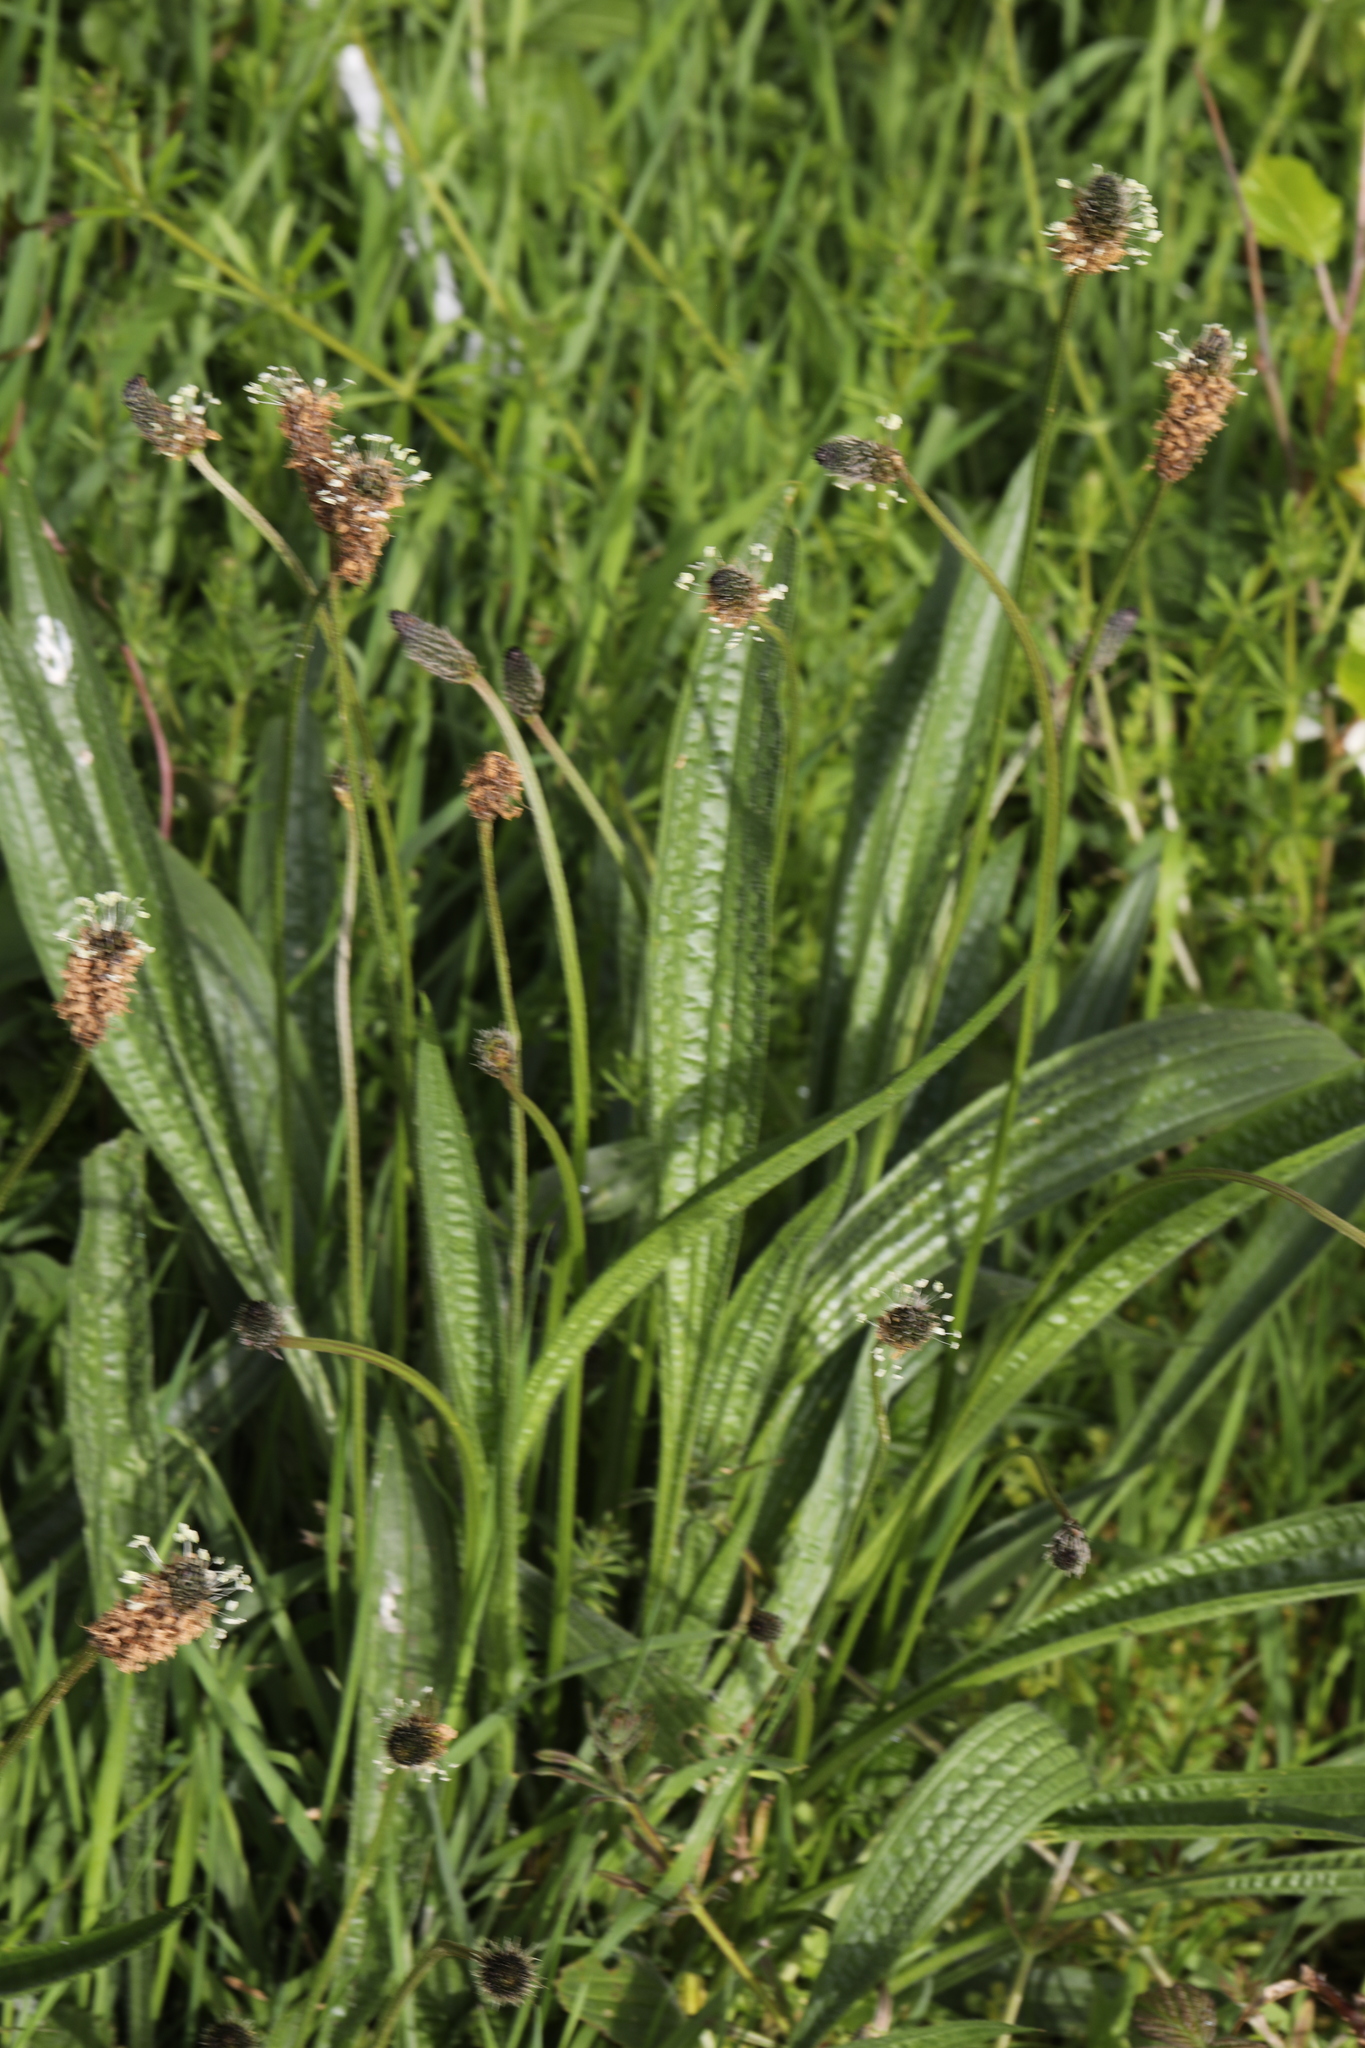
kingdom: Plantae
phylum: Tracheophyta
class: Magnoliopsida
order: Lamiales
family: Plantaginaceae
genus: Plantago
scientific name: Plantago lanceolata
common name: Ribwort plantain
